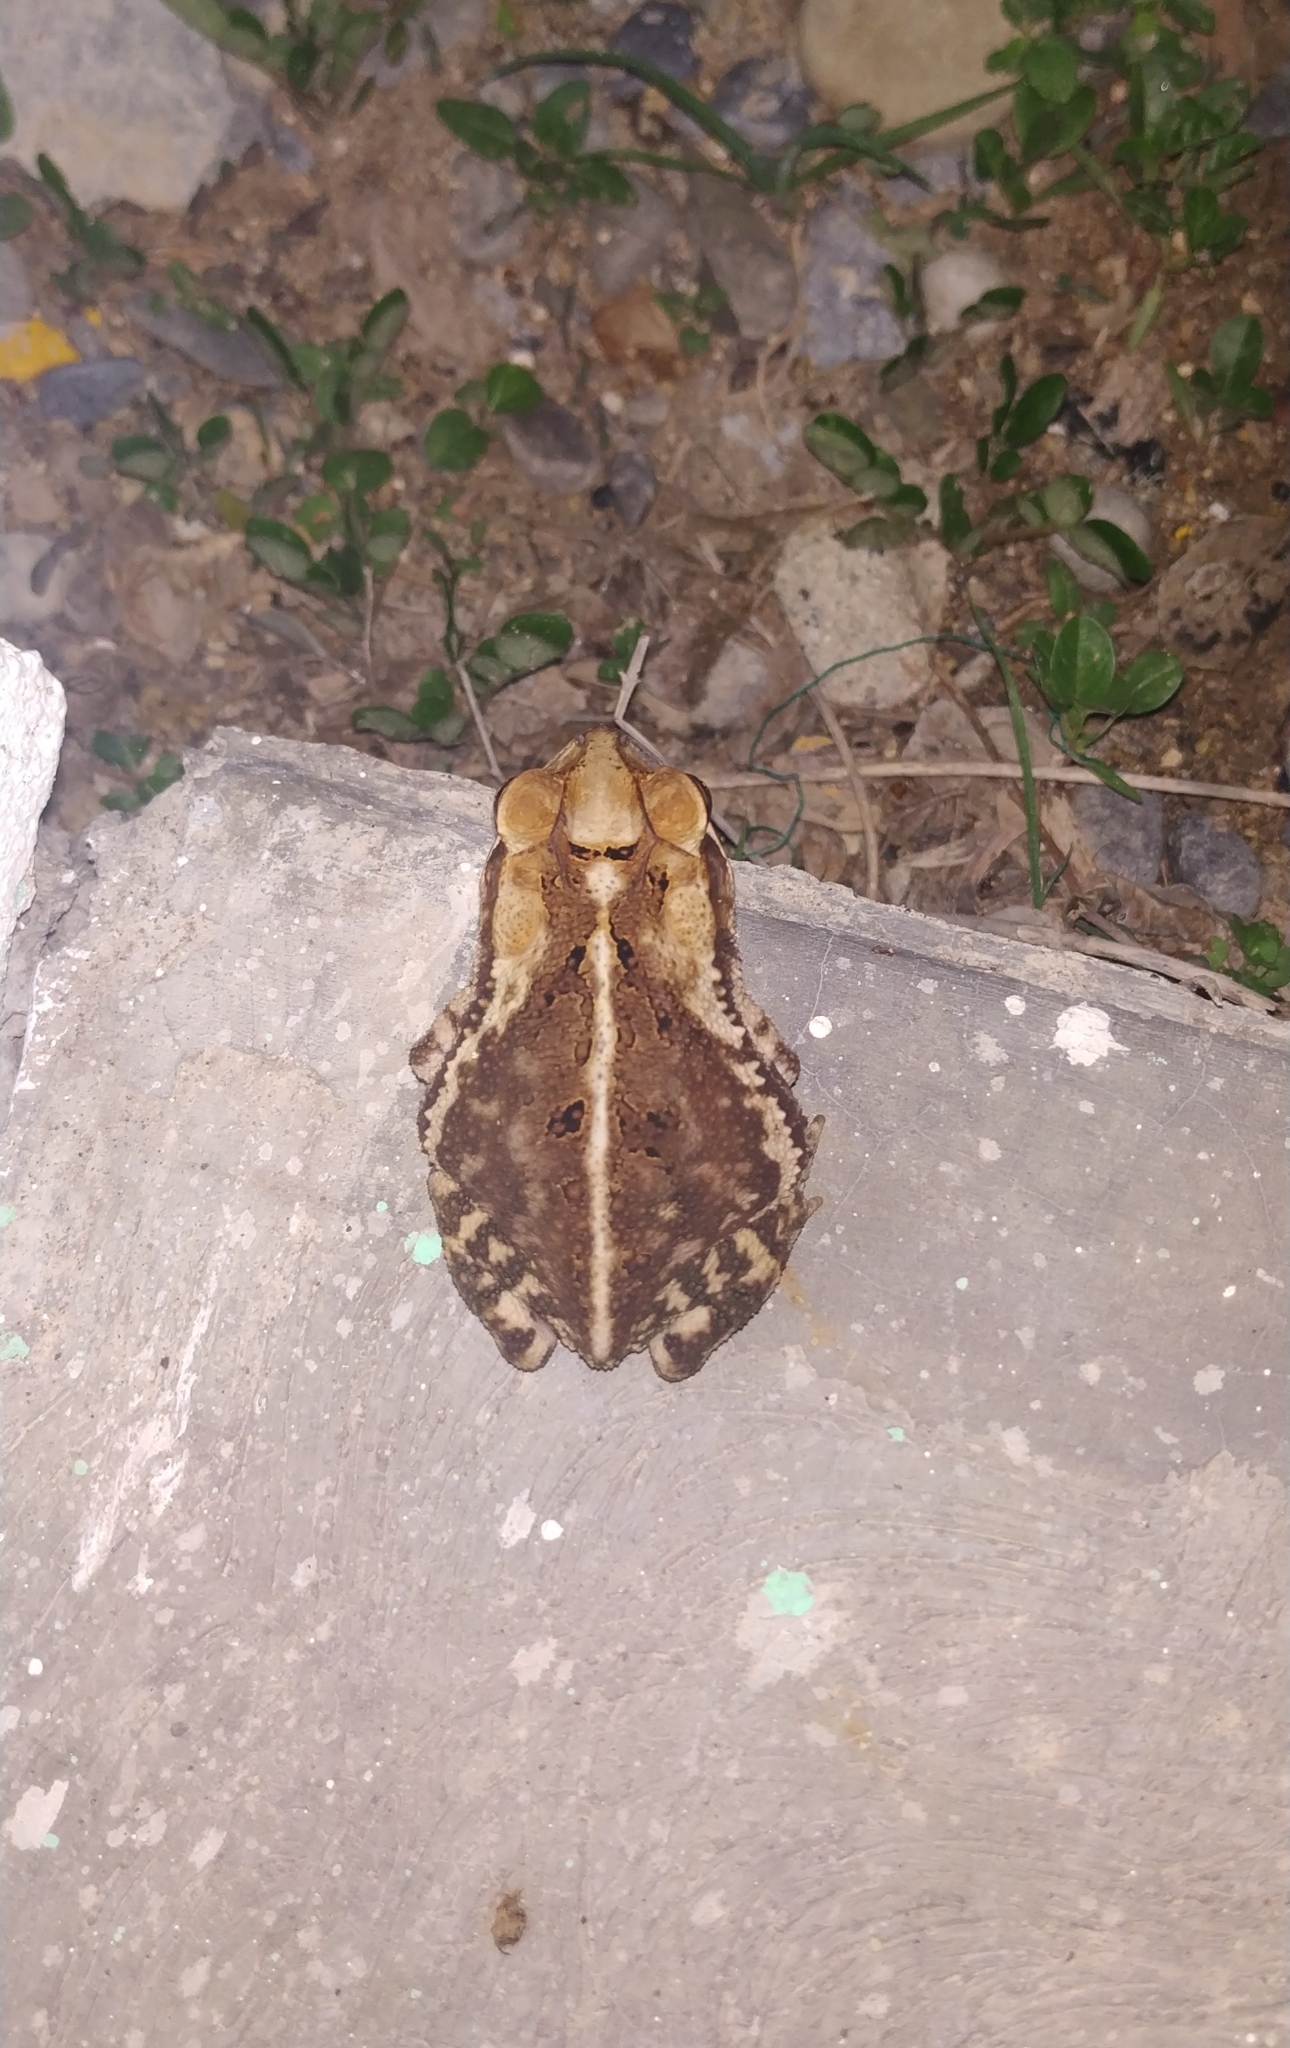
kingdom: Animalia
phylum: Chordata
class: Amphibia
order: Anura
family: Bufonidae
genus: Incilius
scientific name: Incilius nebulifer
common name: Gulf coast toad
